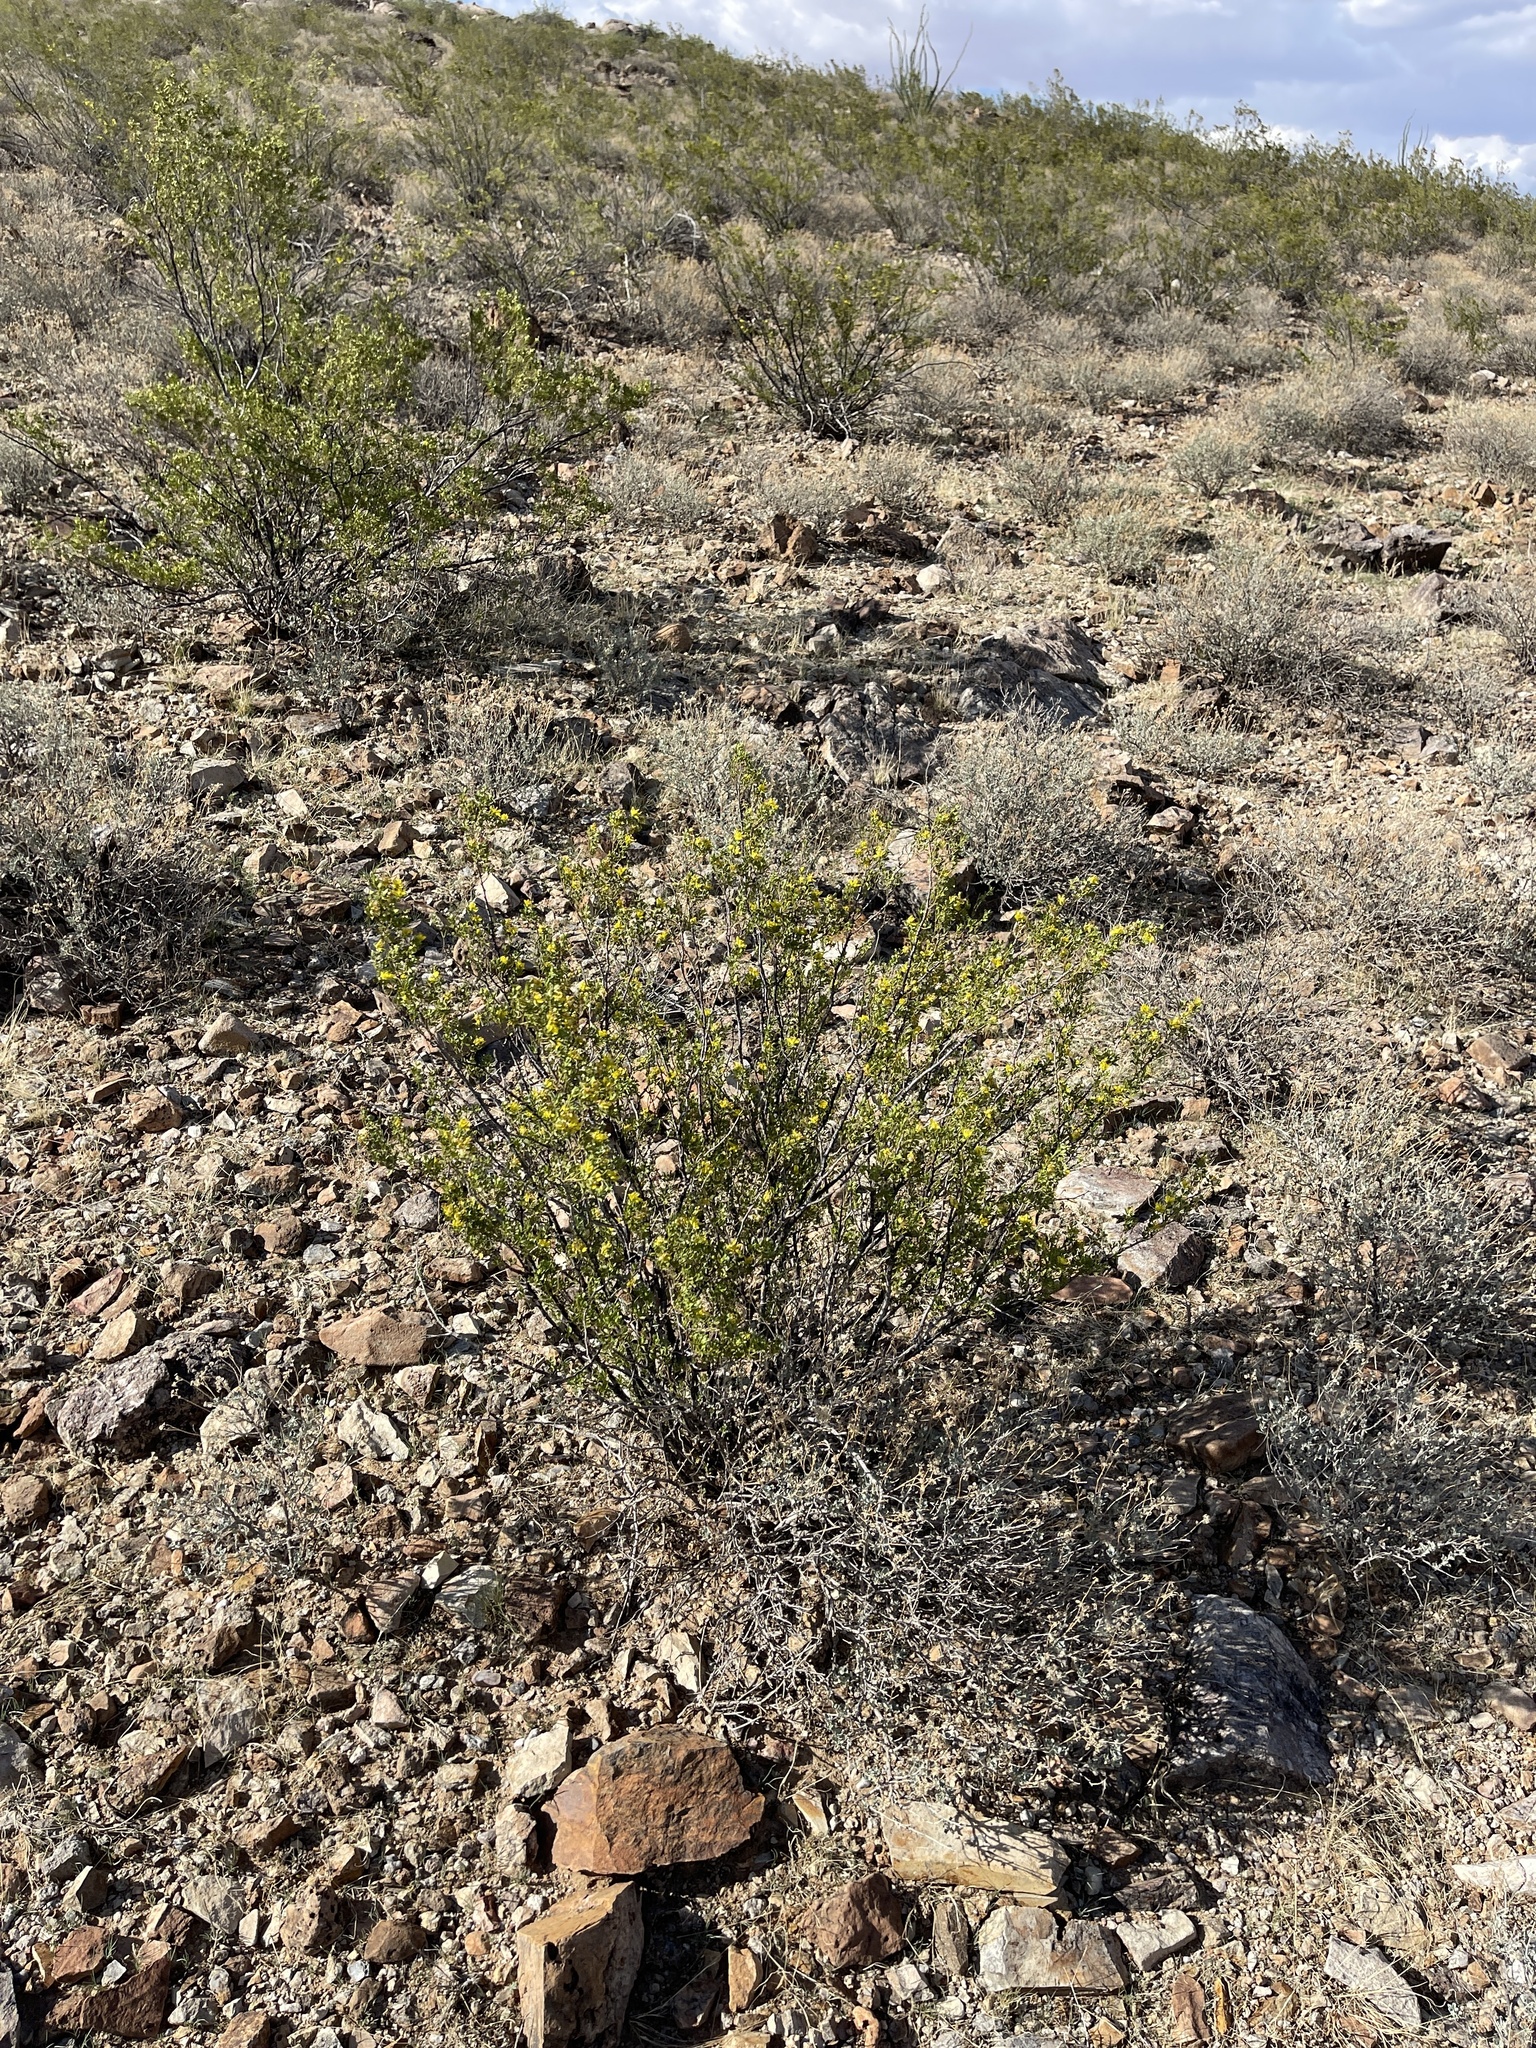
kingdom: Plantae
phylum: Tracheophyta
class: Magnoliopsida
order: Zygophyllales
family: Zygophyllaceae
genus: Larrea
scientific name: Larrea tridentata
